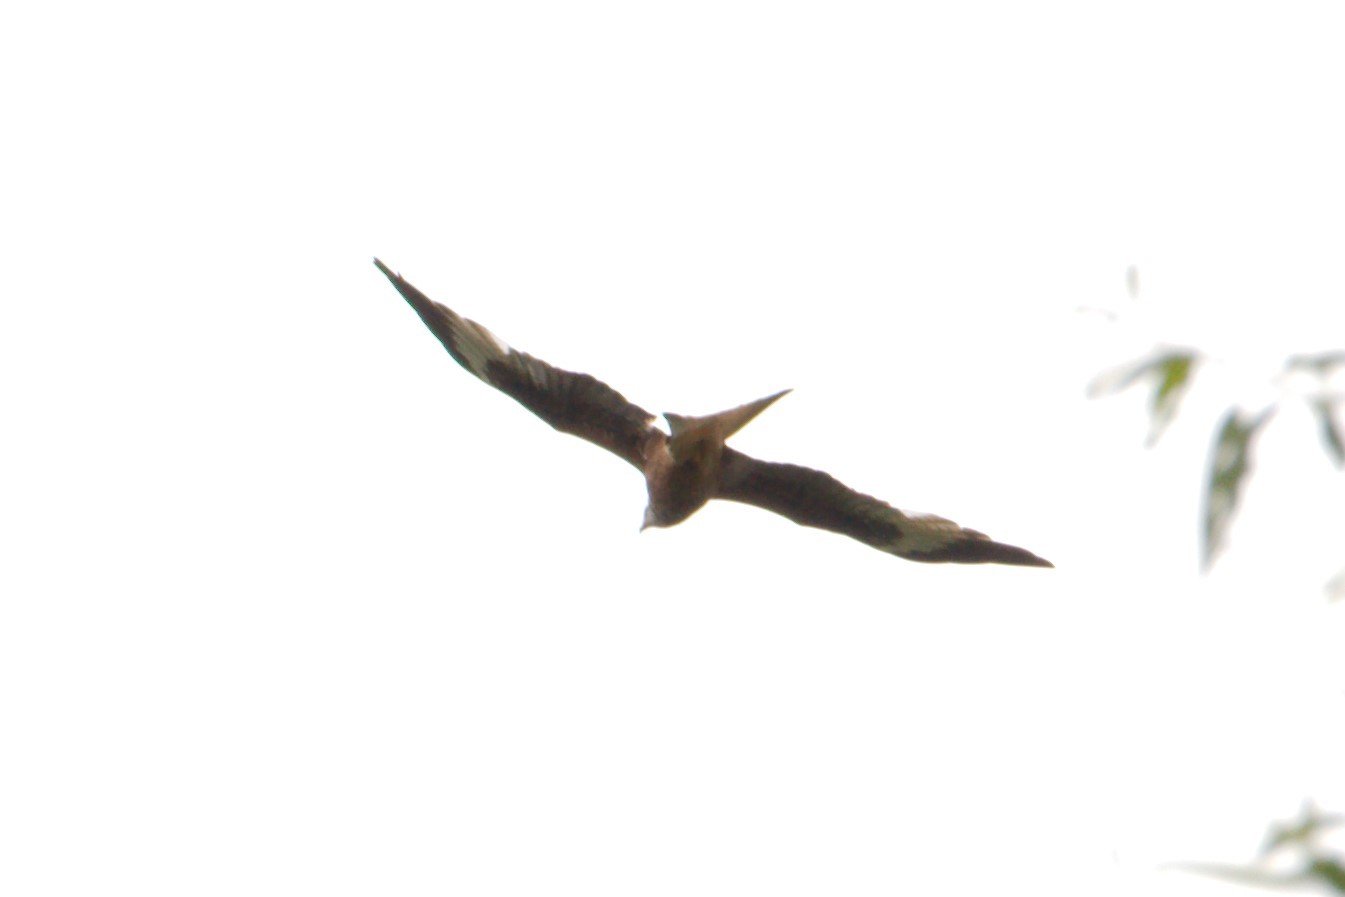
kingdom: Animalia
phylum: Chordata
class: Aves
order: Accipitriformes
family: Accipitridae
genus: Milvus
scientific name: Milvus milvus
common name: Red kite
